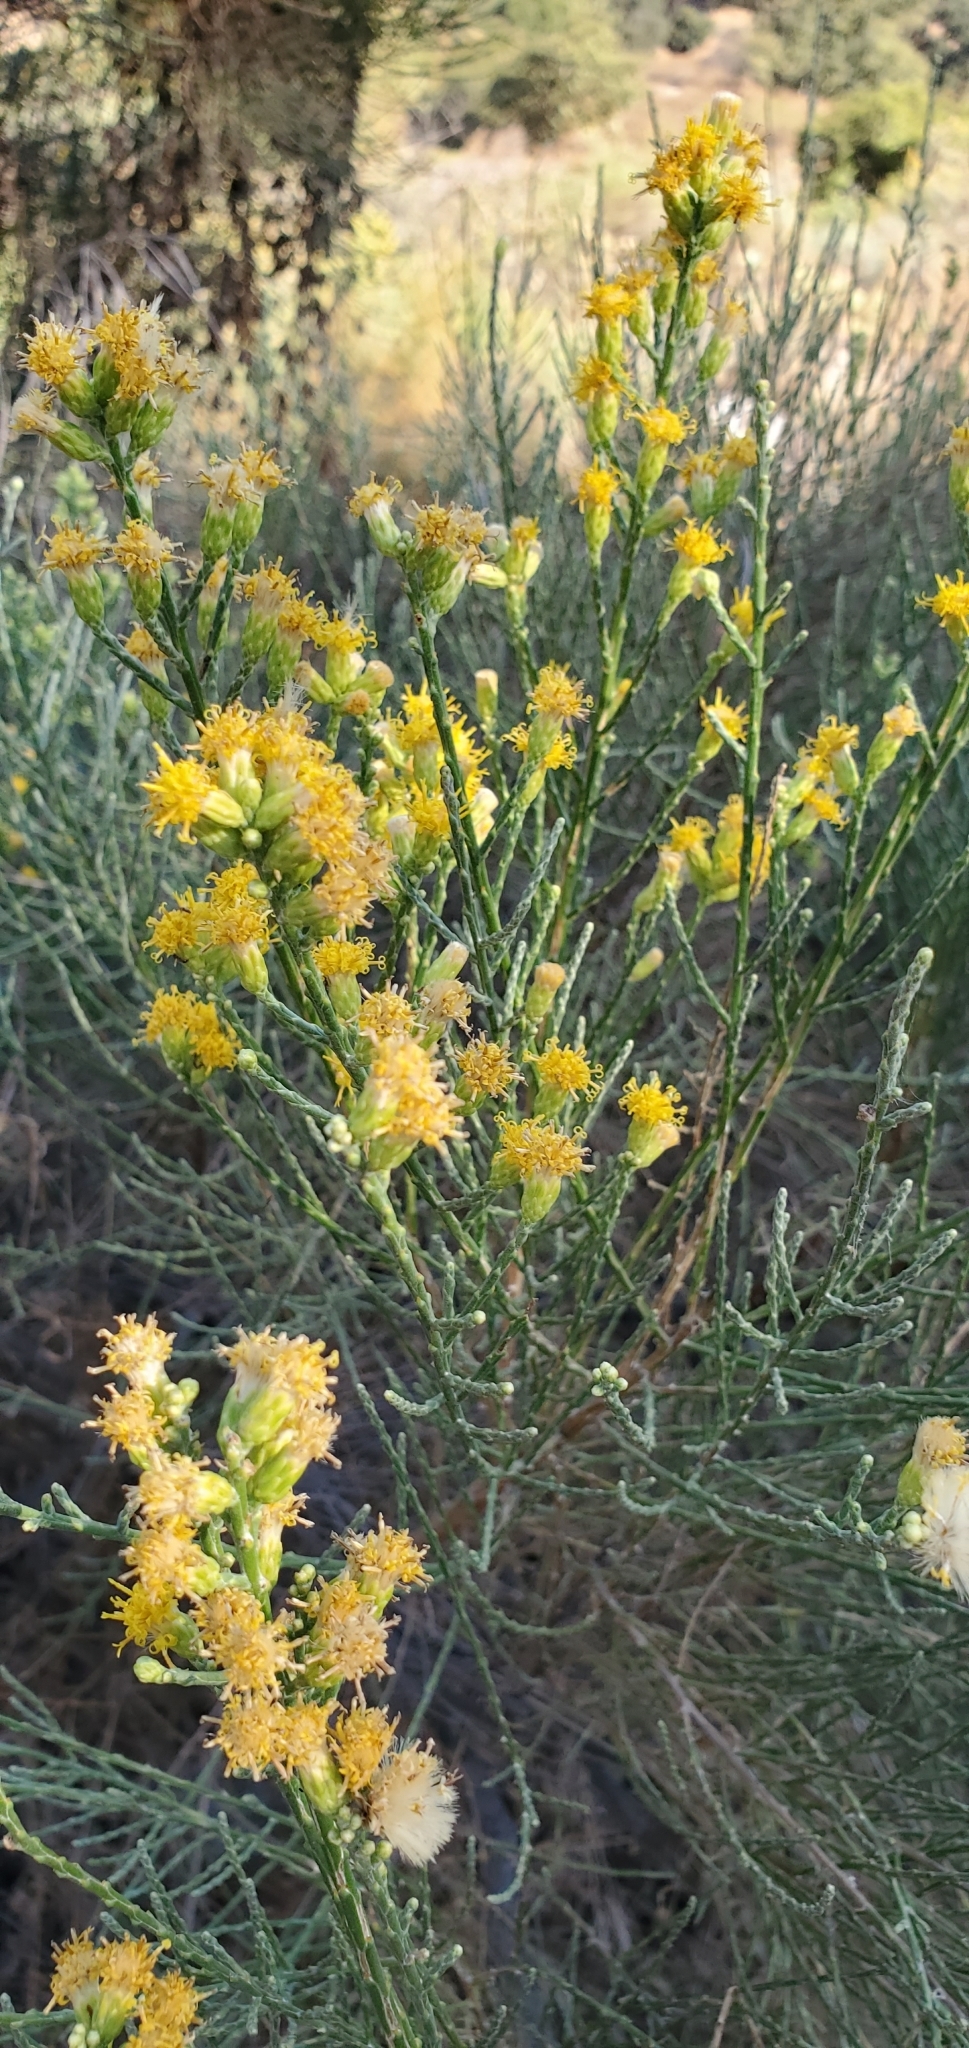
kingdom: Plantae
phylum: Tracheophyta
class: Magnoliopsida
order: Asterales
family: Asteraceae
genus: Lepidospartum
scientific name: Lepidospartum squamatum
